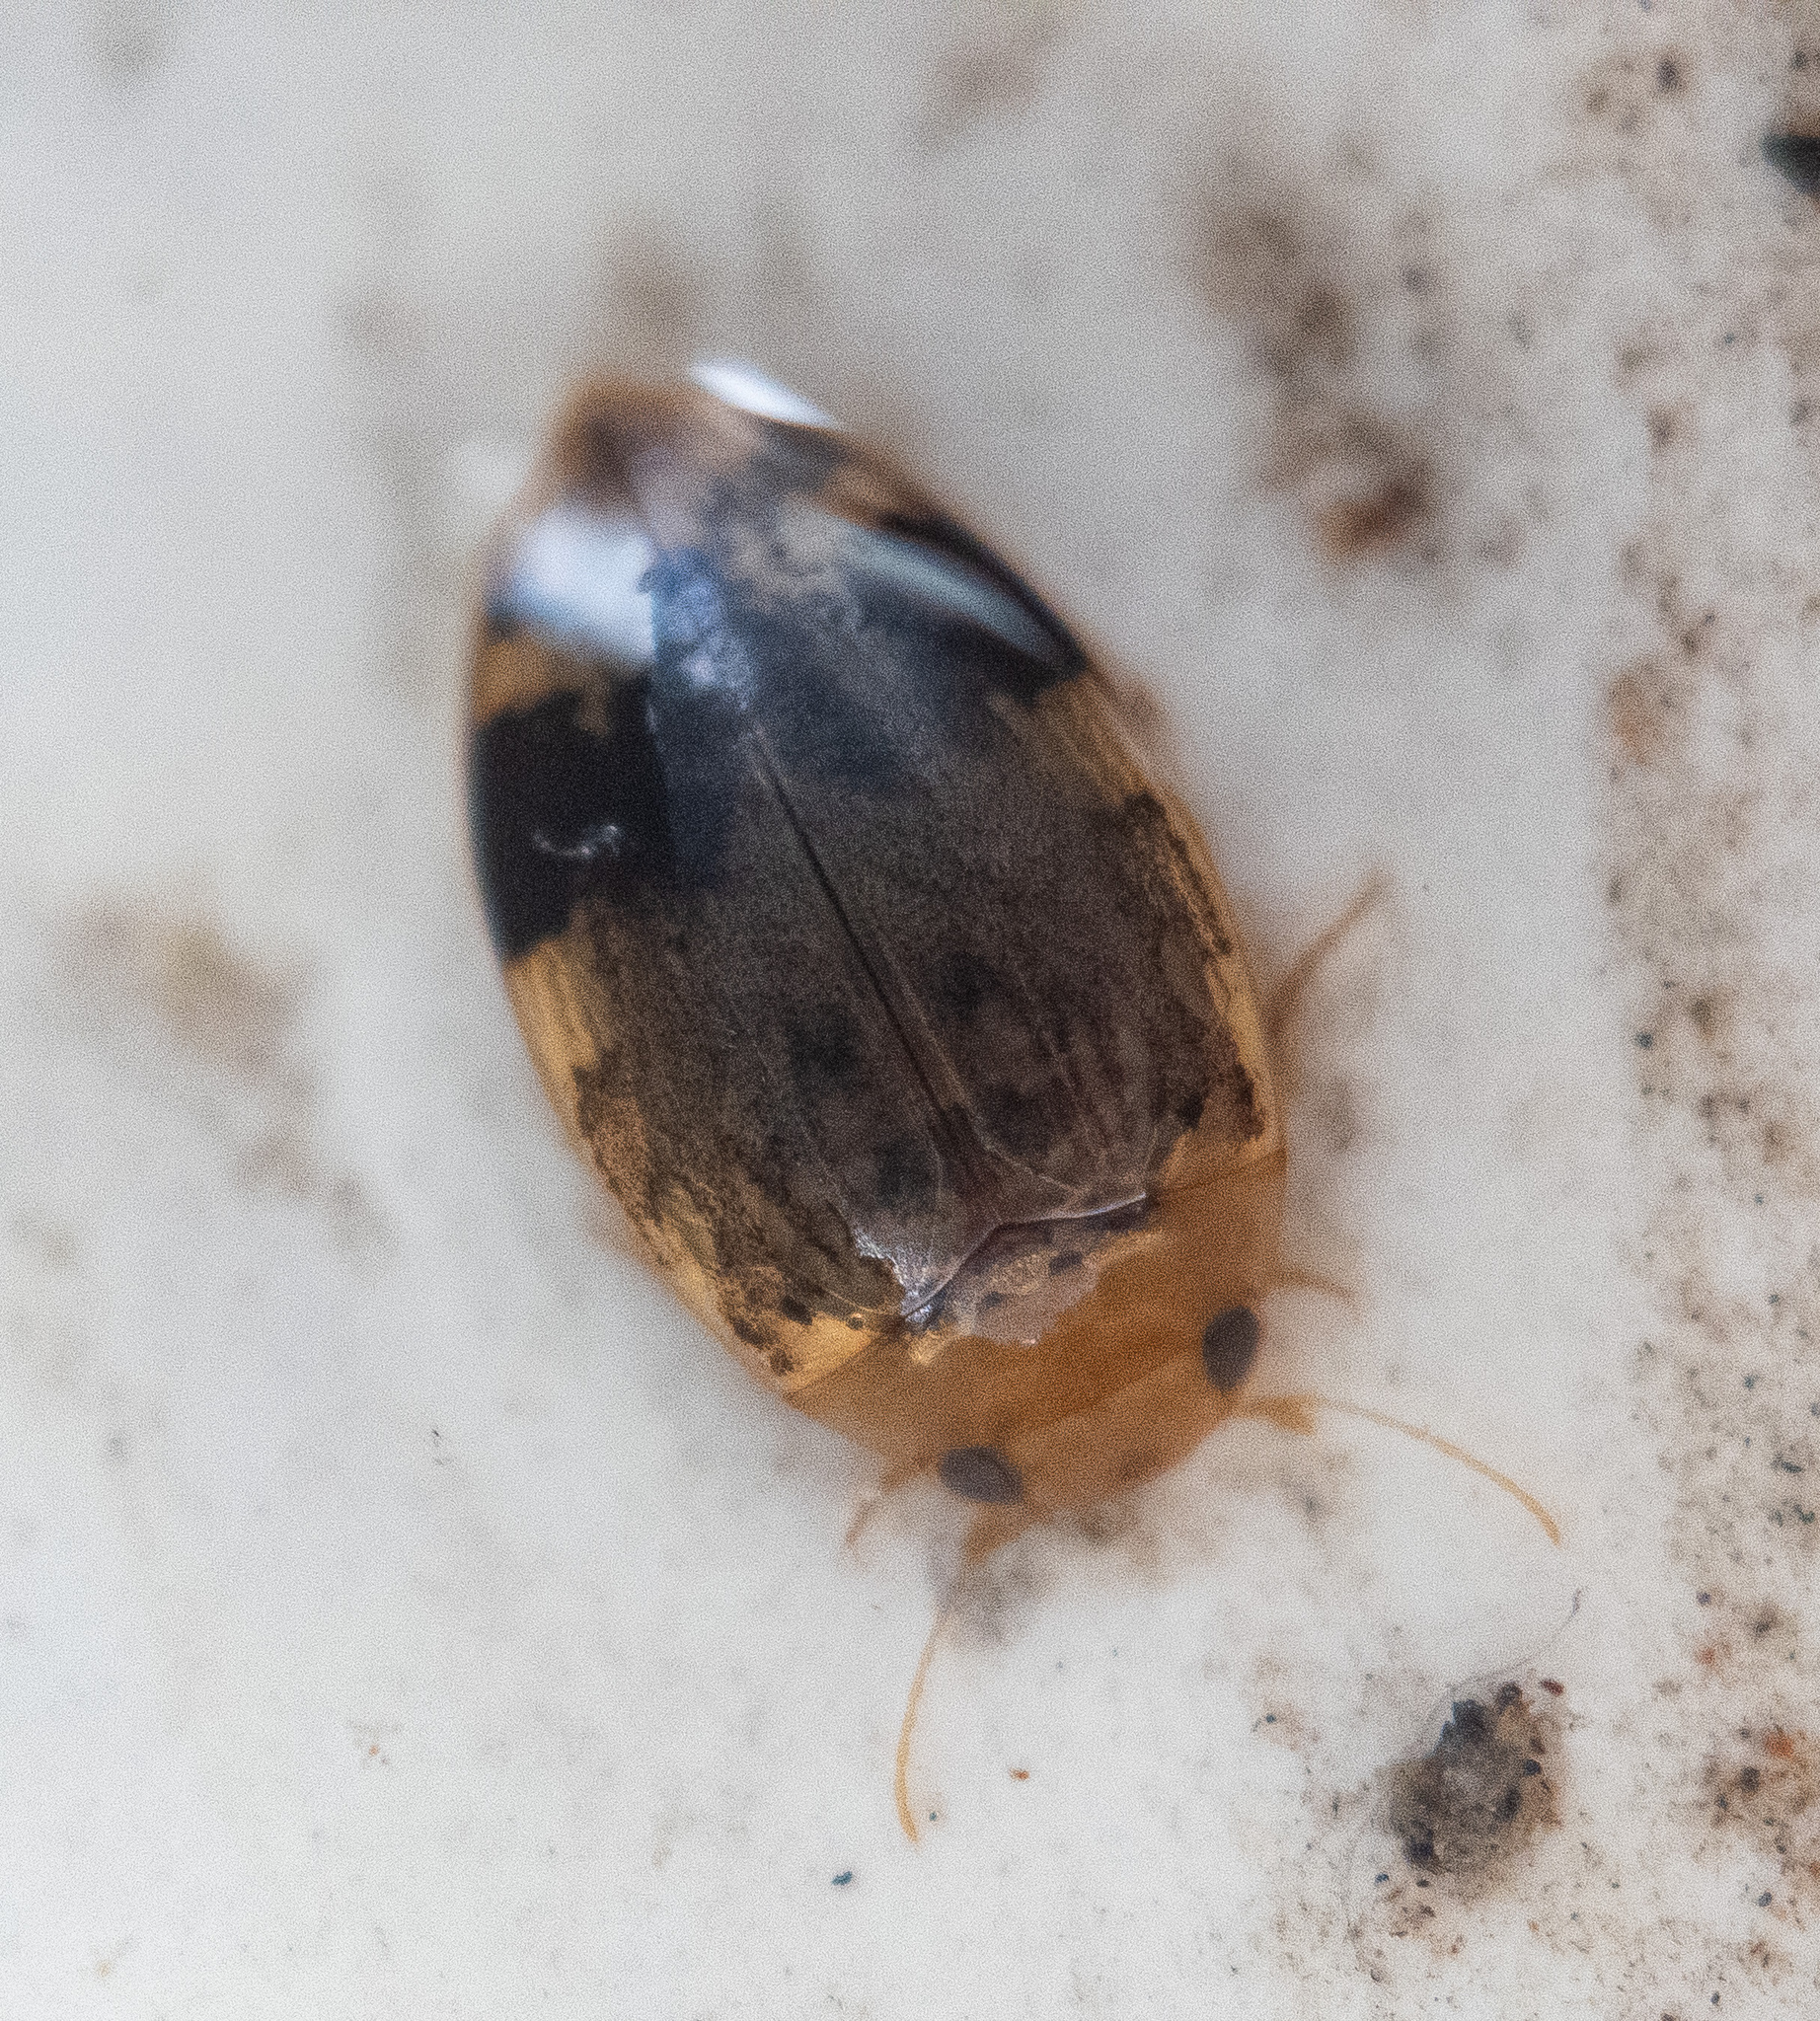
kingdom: Animalia
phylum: Arthropoda
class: Insecta
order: Coleoptera
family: Dytiscidae
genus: Laccophilus
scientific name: Laccophilus fasciatus
